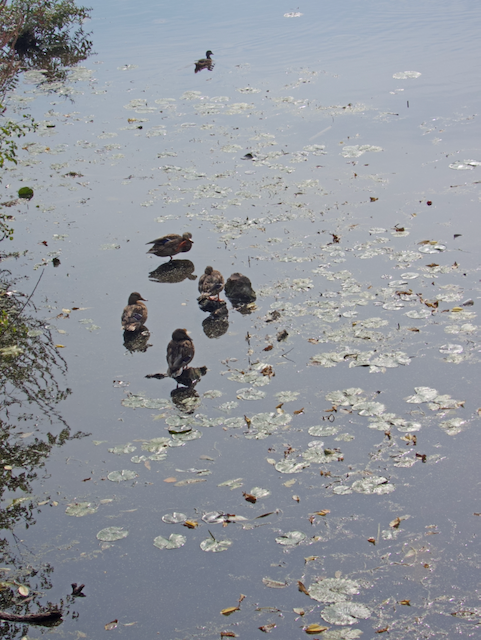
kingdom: Animalia
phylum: Chordata
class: Aves
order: Anseriformes
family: Anatidae
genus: Anas
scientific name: Anas platyrhynchos
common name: Mallard
